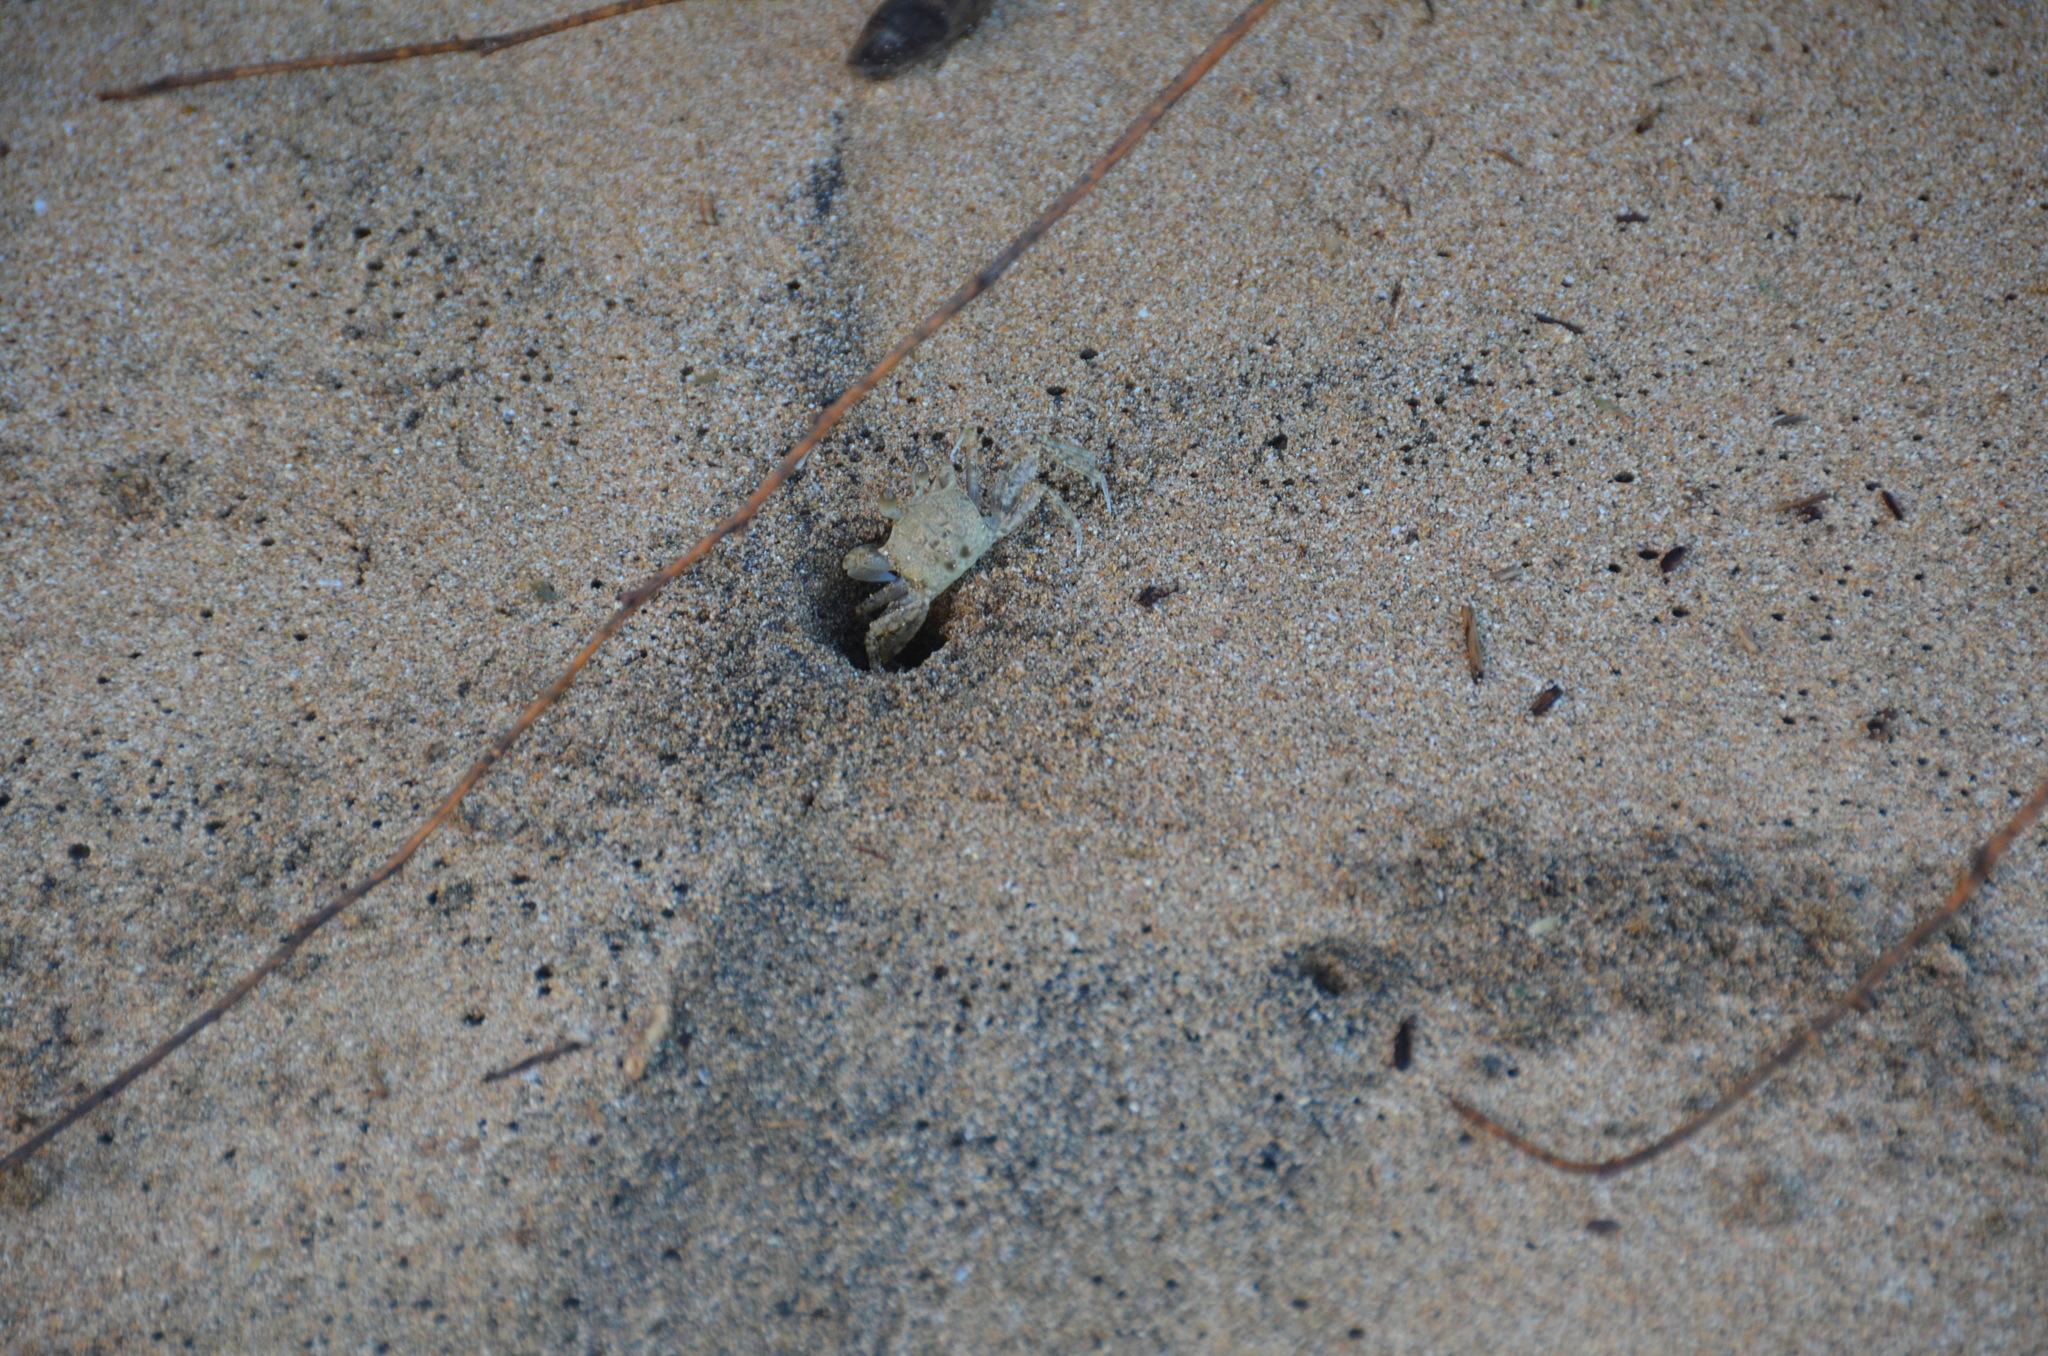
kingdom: Animalia
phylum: Arthropoda
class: Malacostraca
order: Decapoda
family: Ocypodidae
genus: Ocypode
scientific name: Ocypode pallidula
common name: Pallid ghost crab
